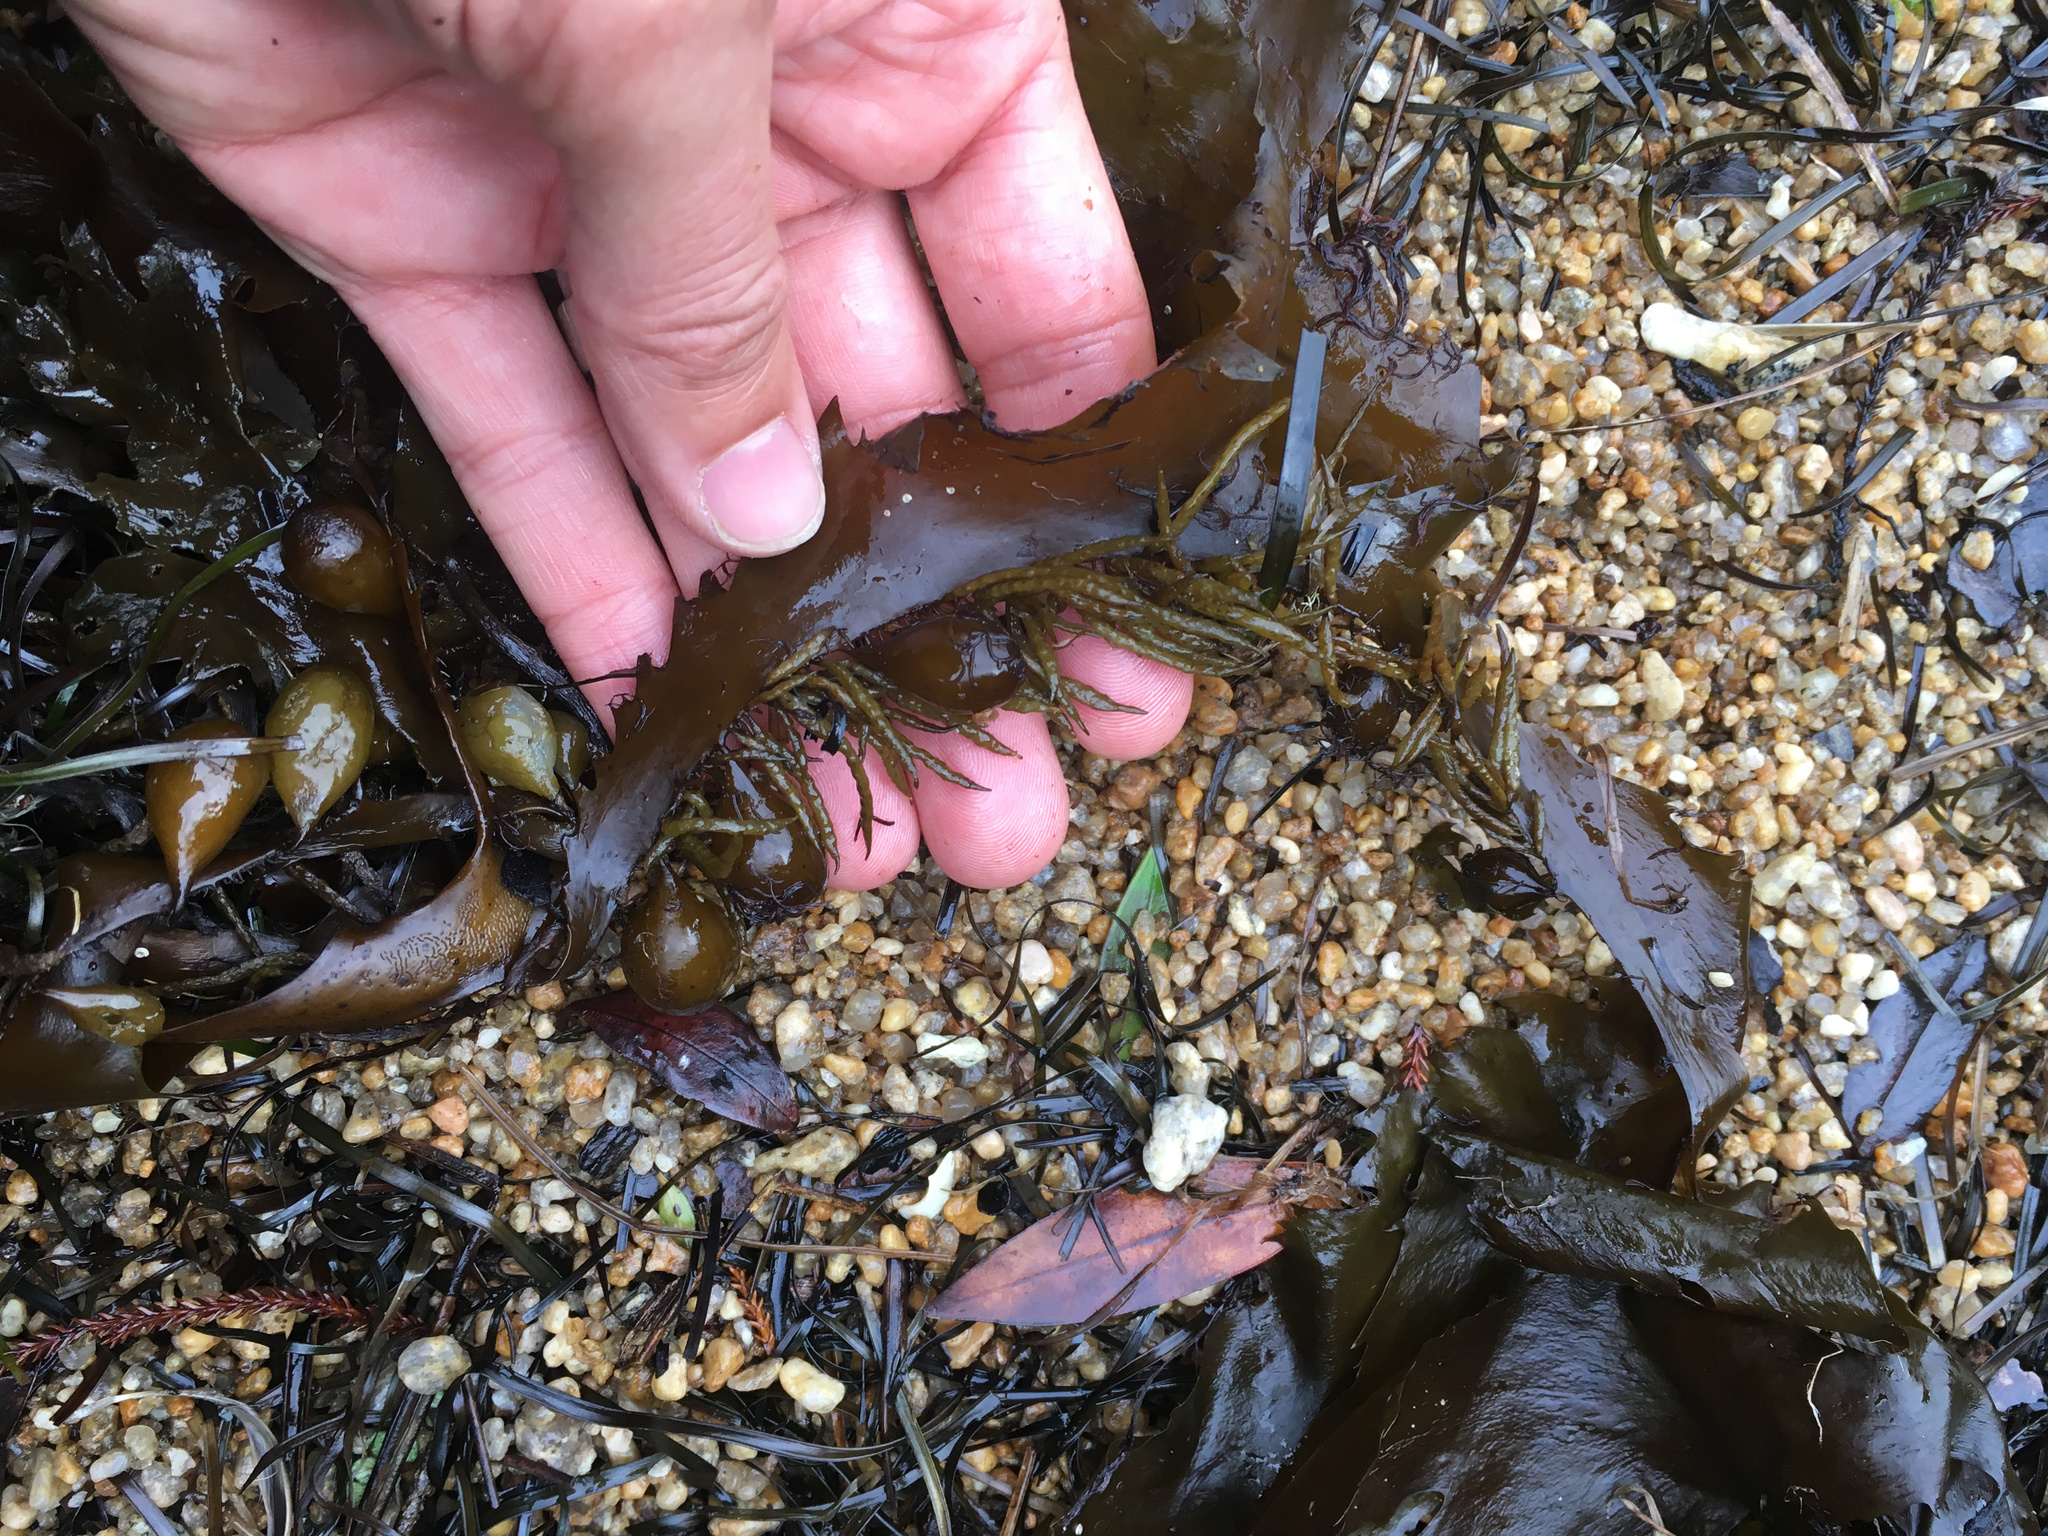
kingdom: Chromista
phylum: Ochrophyta
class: Phaeophyceae
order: Fucales
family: Seirococcaceae
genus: Marginariella
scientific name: Marginariella boryana
